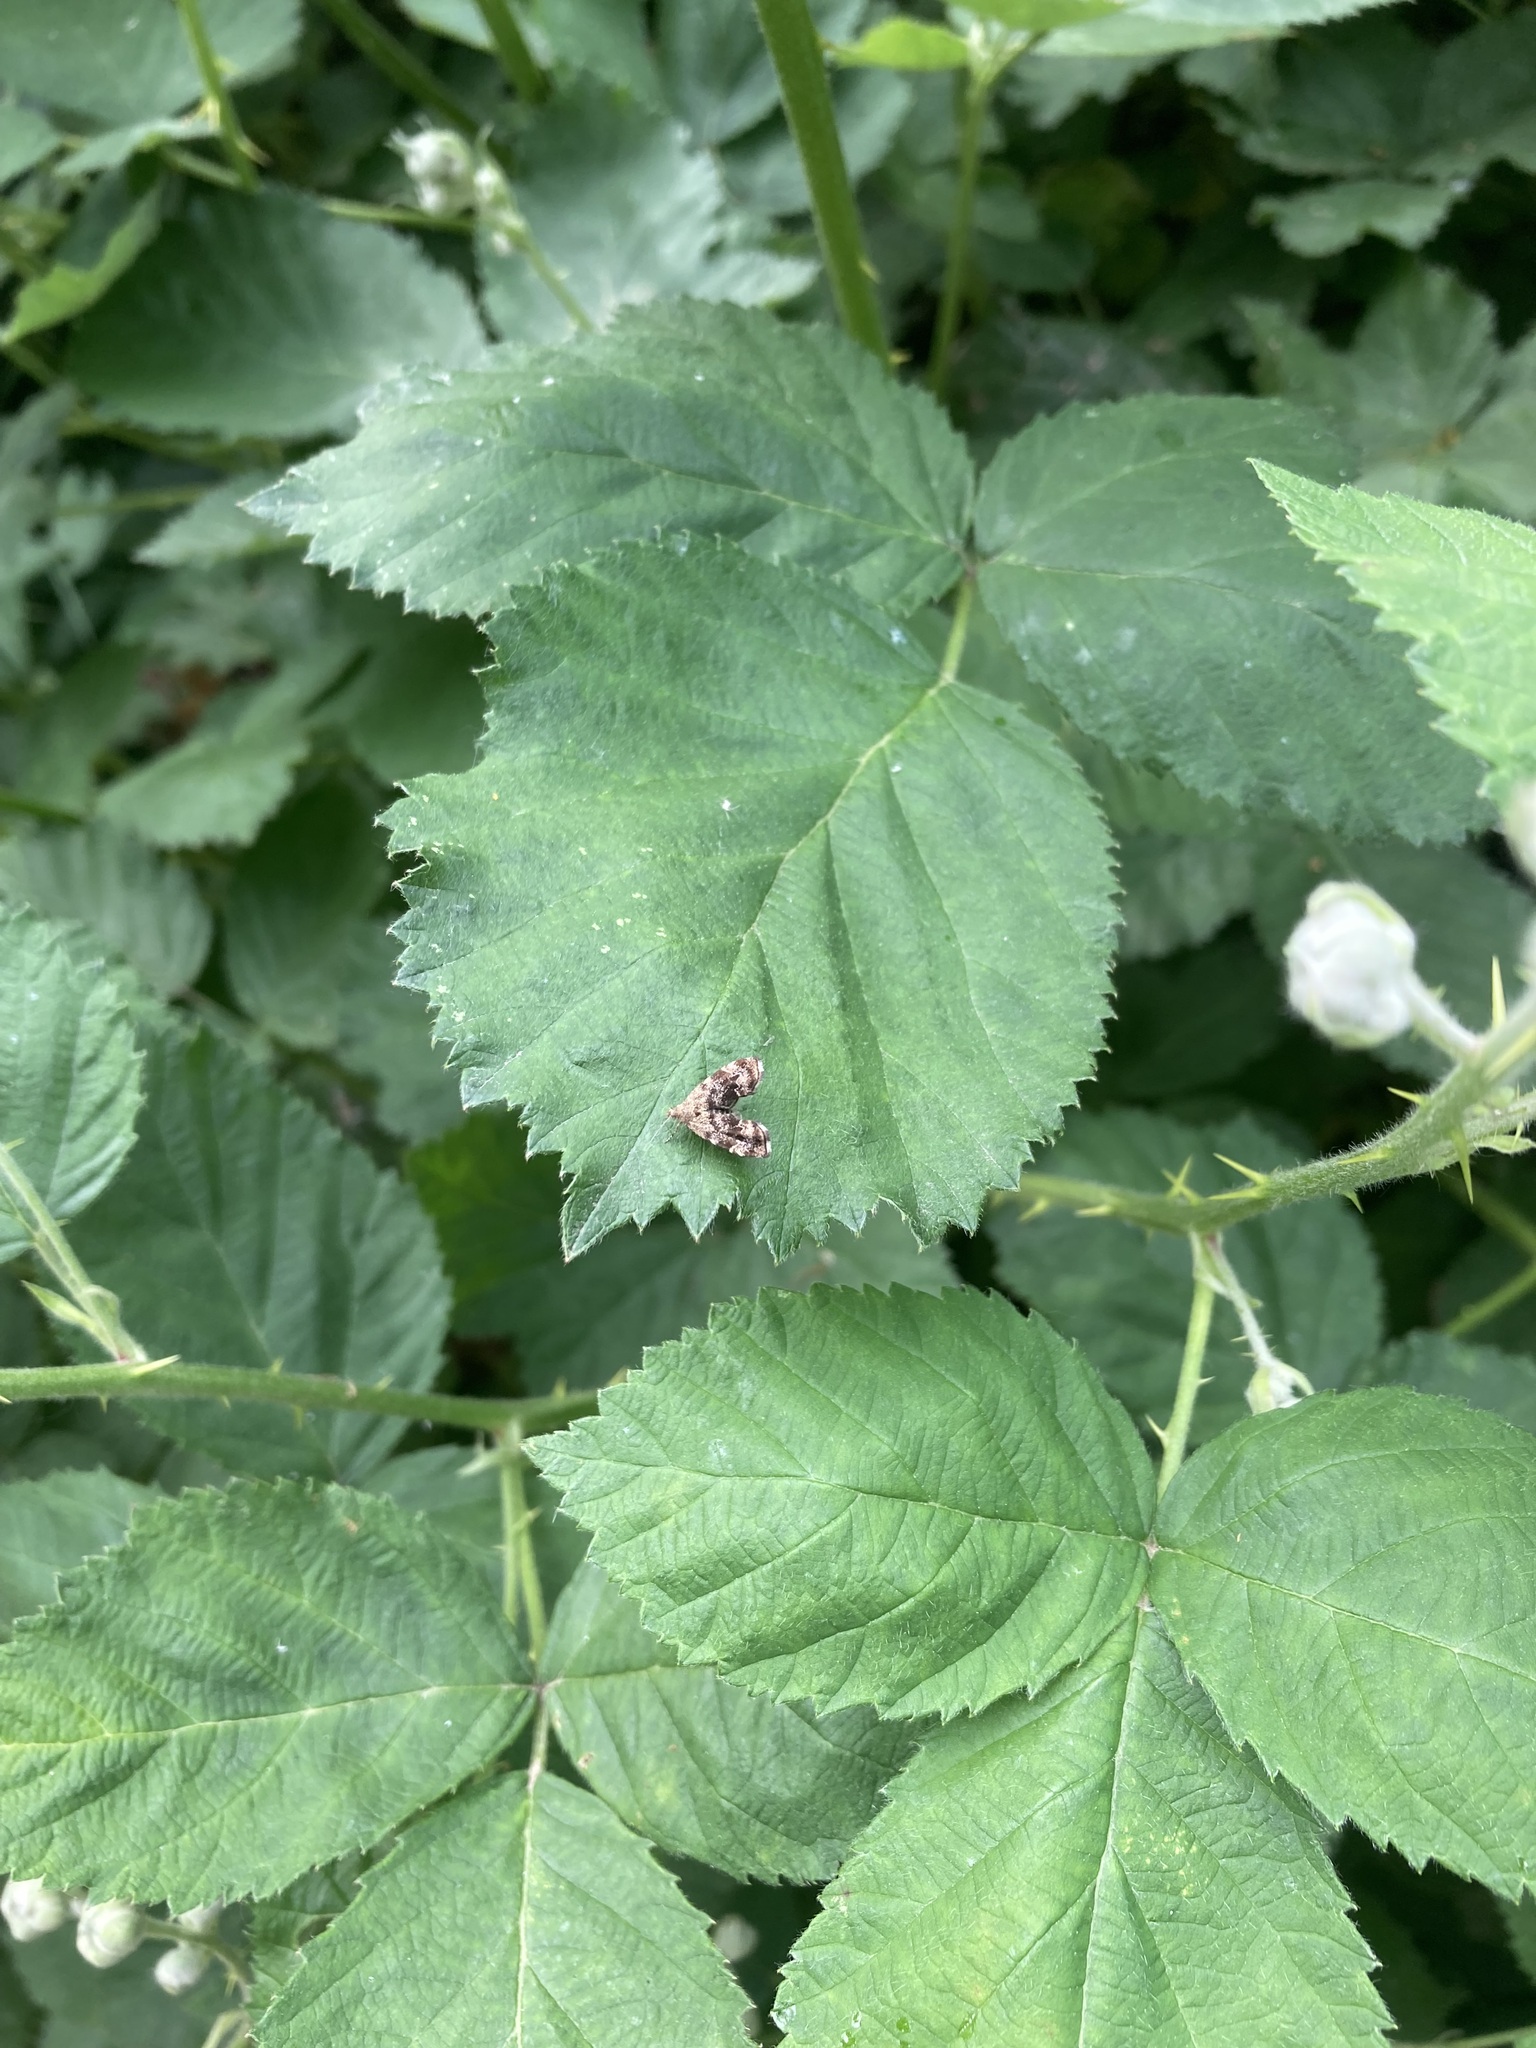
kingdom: Animalia
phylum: Arthropoda
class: Insecta
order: Lepidoptera
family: Choreutidae
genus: Anthophila
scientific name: Anthophila fabriciana
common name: Nettle-tap
